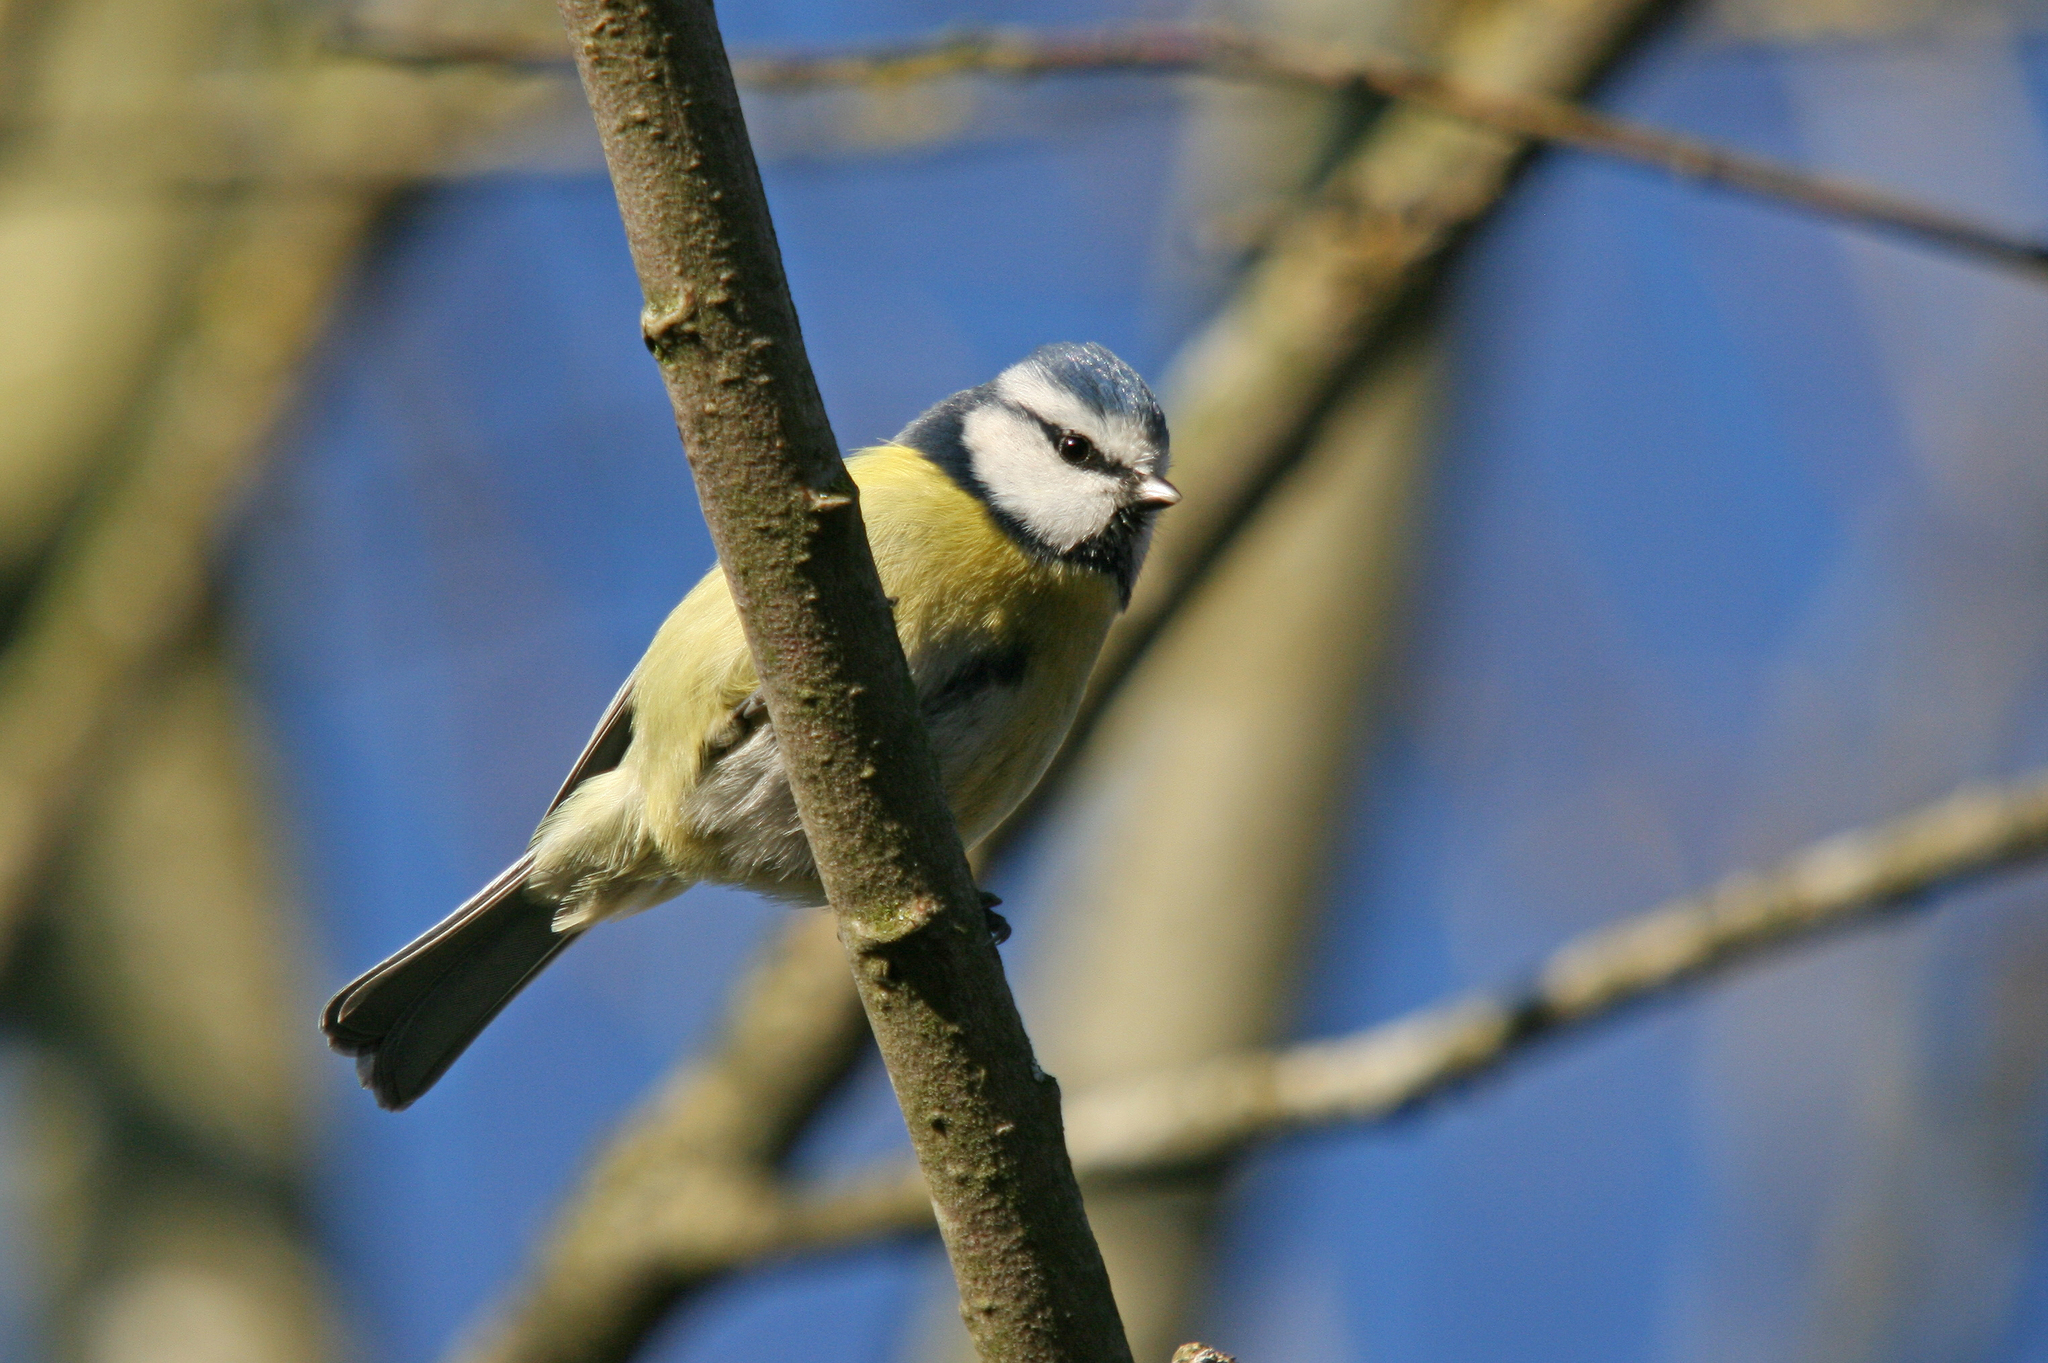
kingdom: Animalia
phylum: Chordata
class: Aves
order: Passeriformes
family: Paridae
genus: Cyanistes
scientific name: Cyanistes caeruleus
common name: Eurasian blue tit
